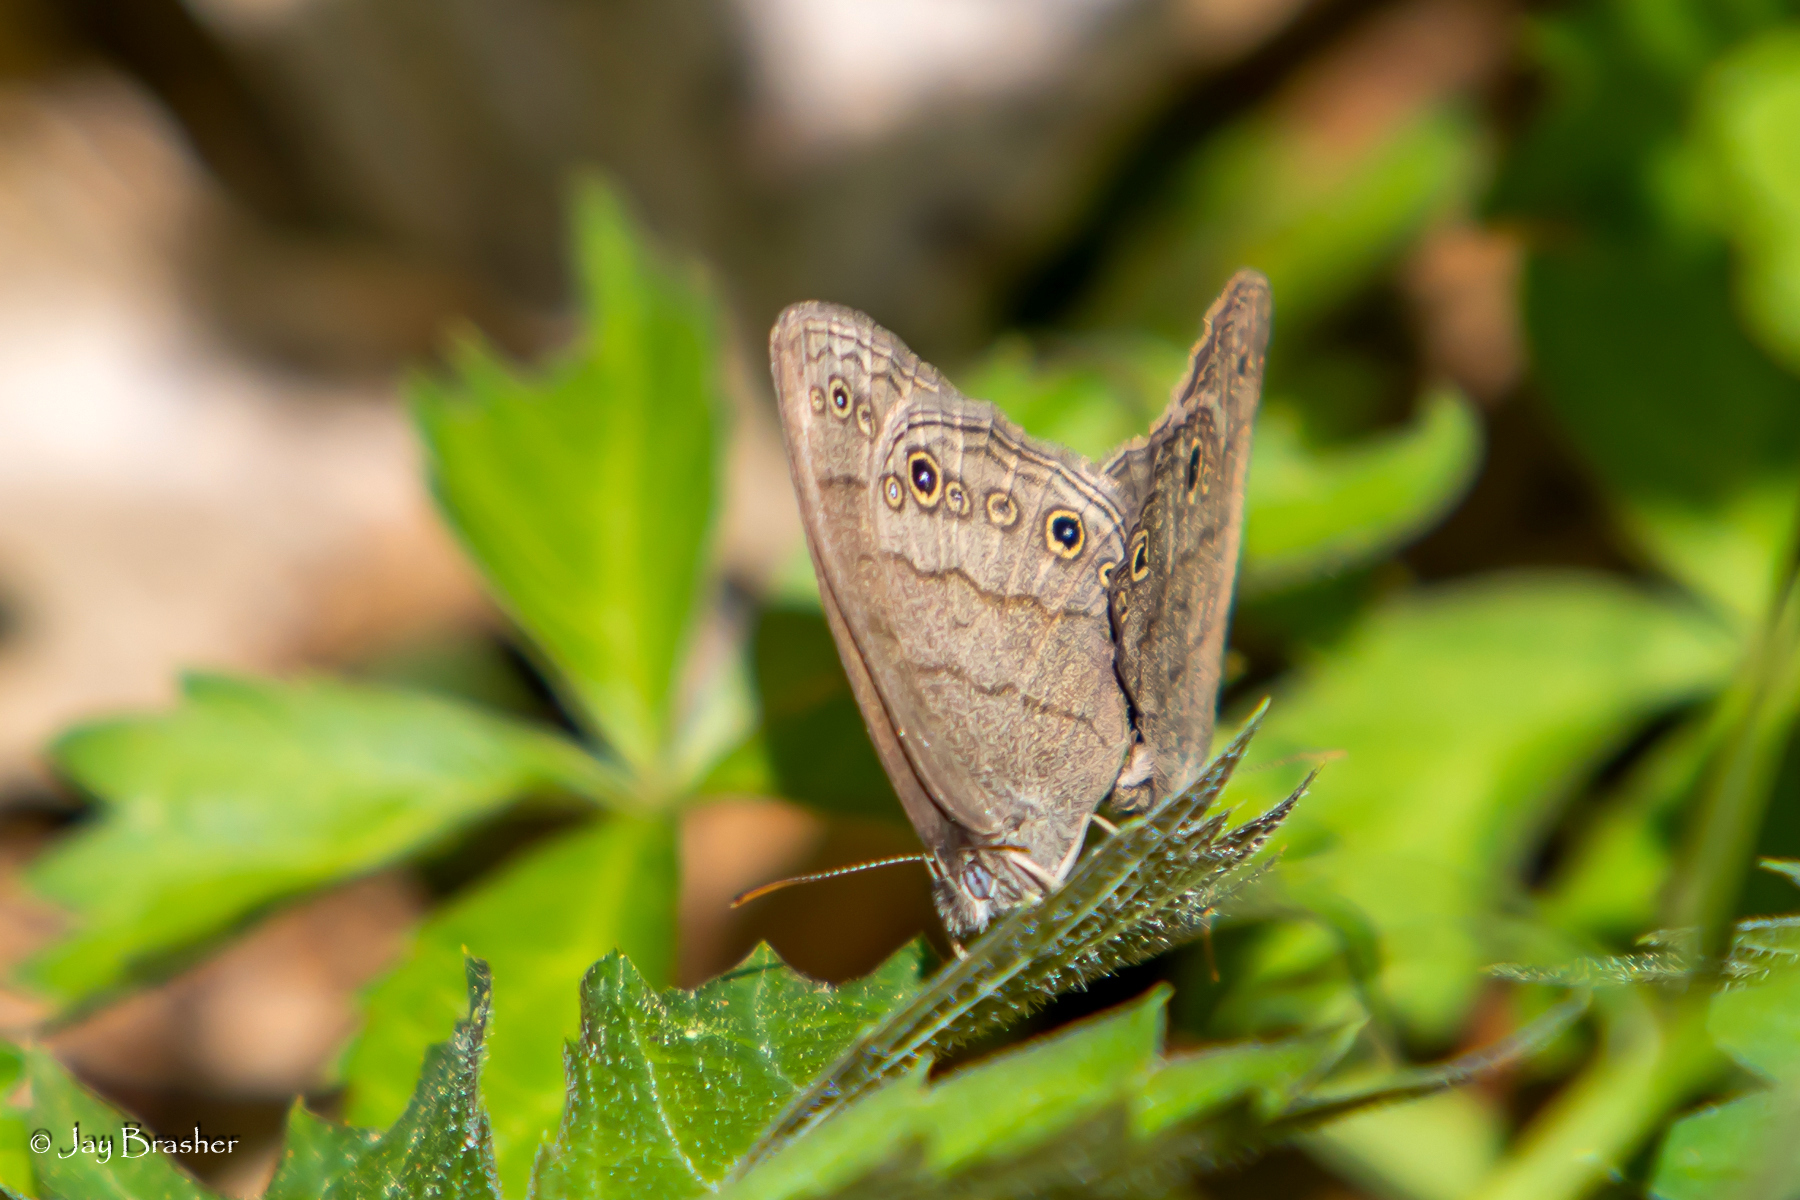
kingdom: Animalia
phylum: Arthropoda
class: Insecta
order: Lepidoptera
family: Nymphalidae
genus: Hermeuptychia
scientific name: Hermeuptychia hermes
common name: Hermes satyr
